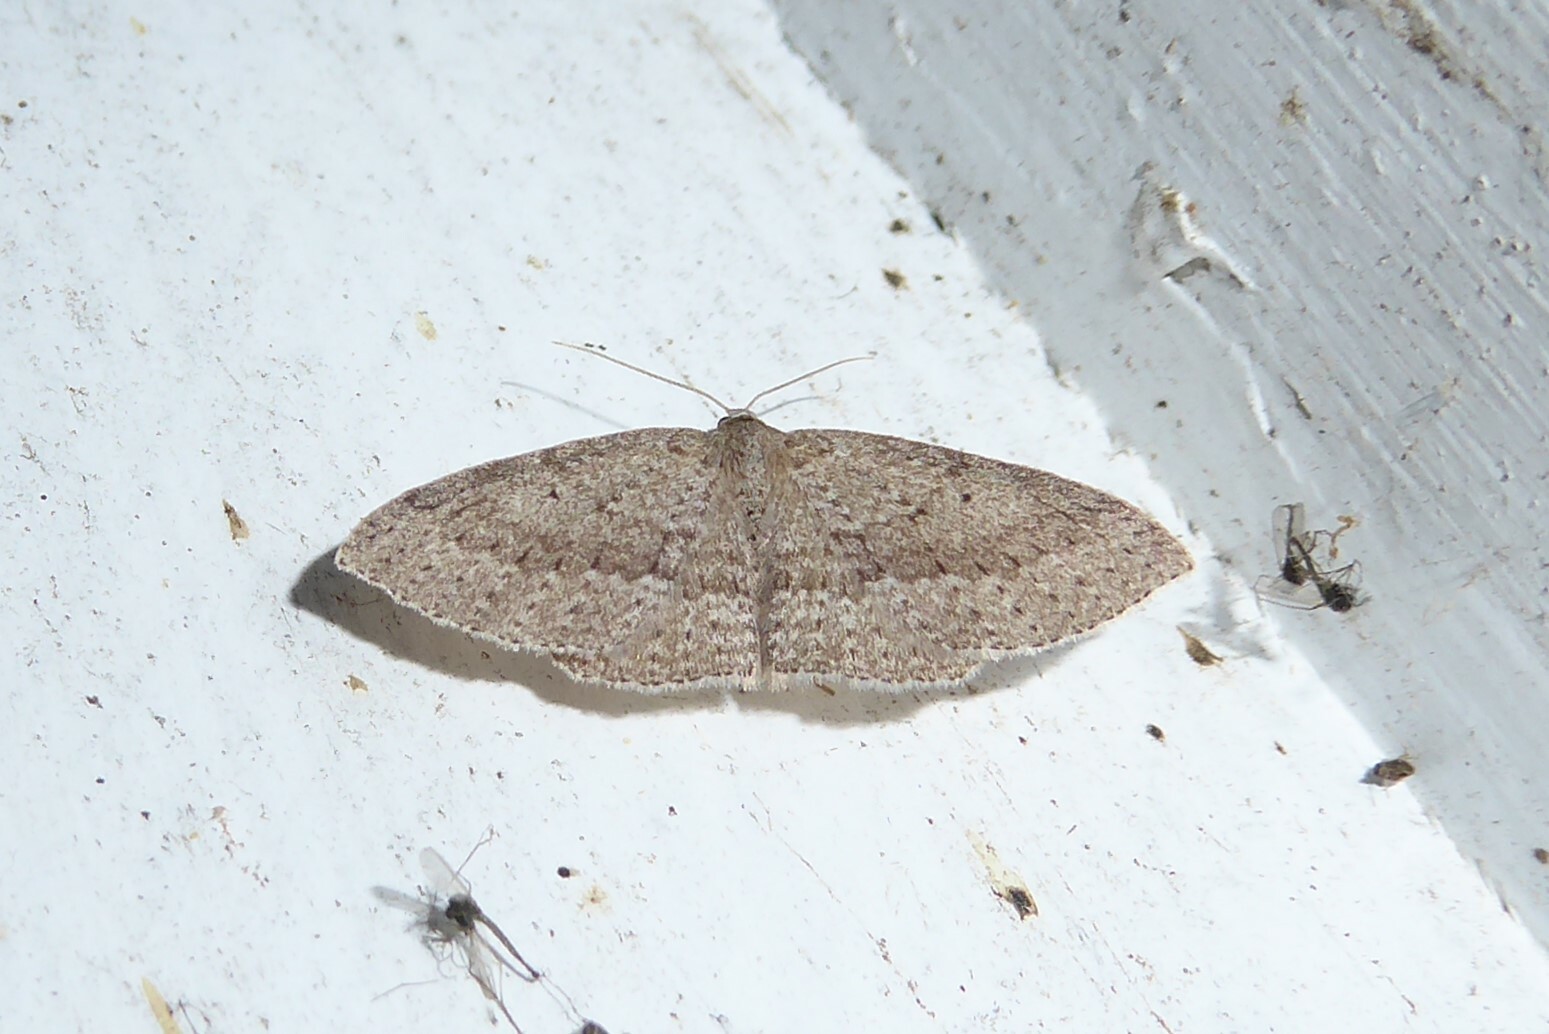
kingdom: Animalia
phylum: Arthropoda
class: Insecta
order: Lepidoptera
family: Geometridae
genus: Poecilasthena
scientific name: Poecilasthena schistaria
